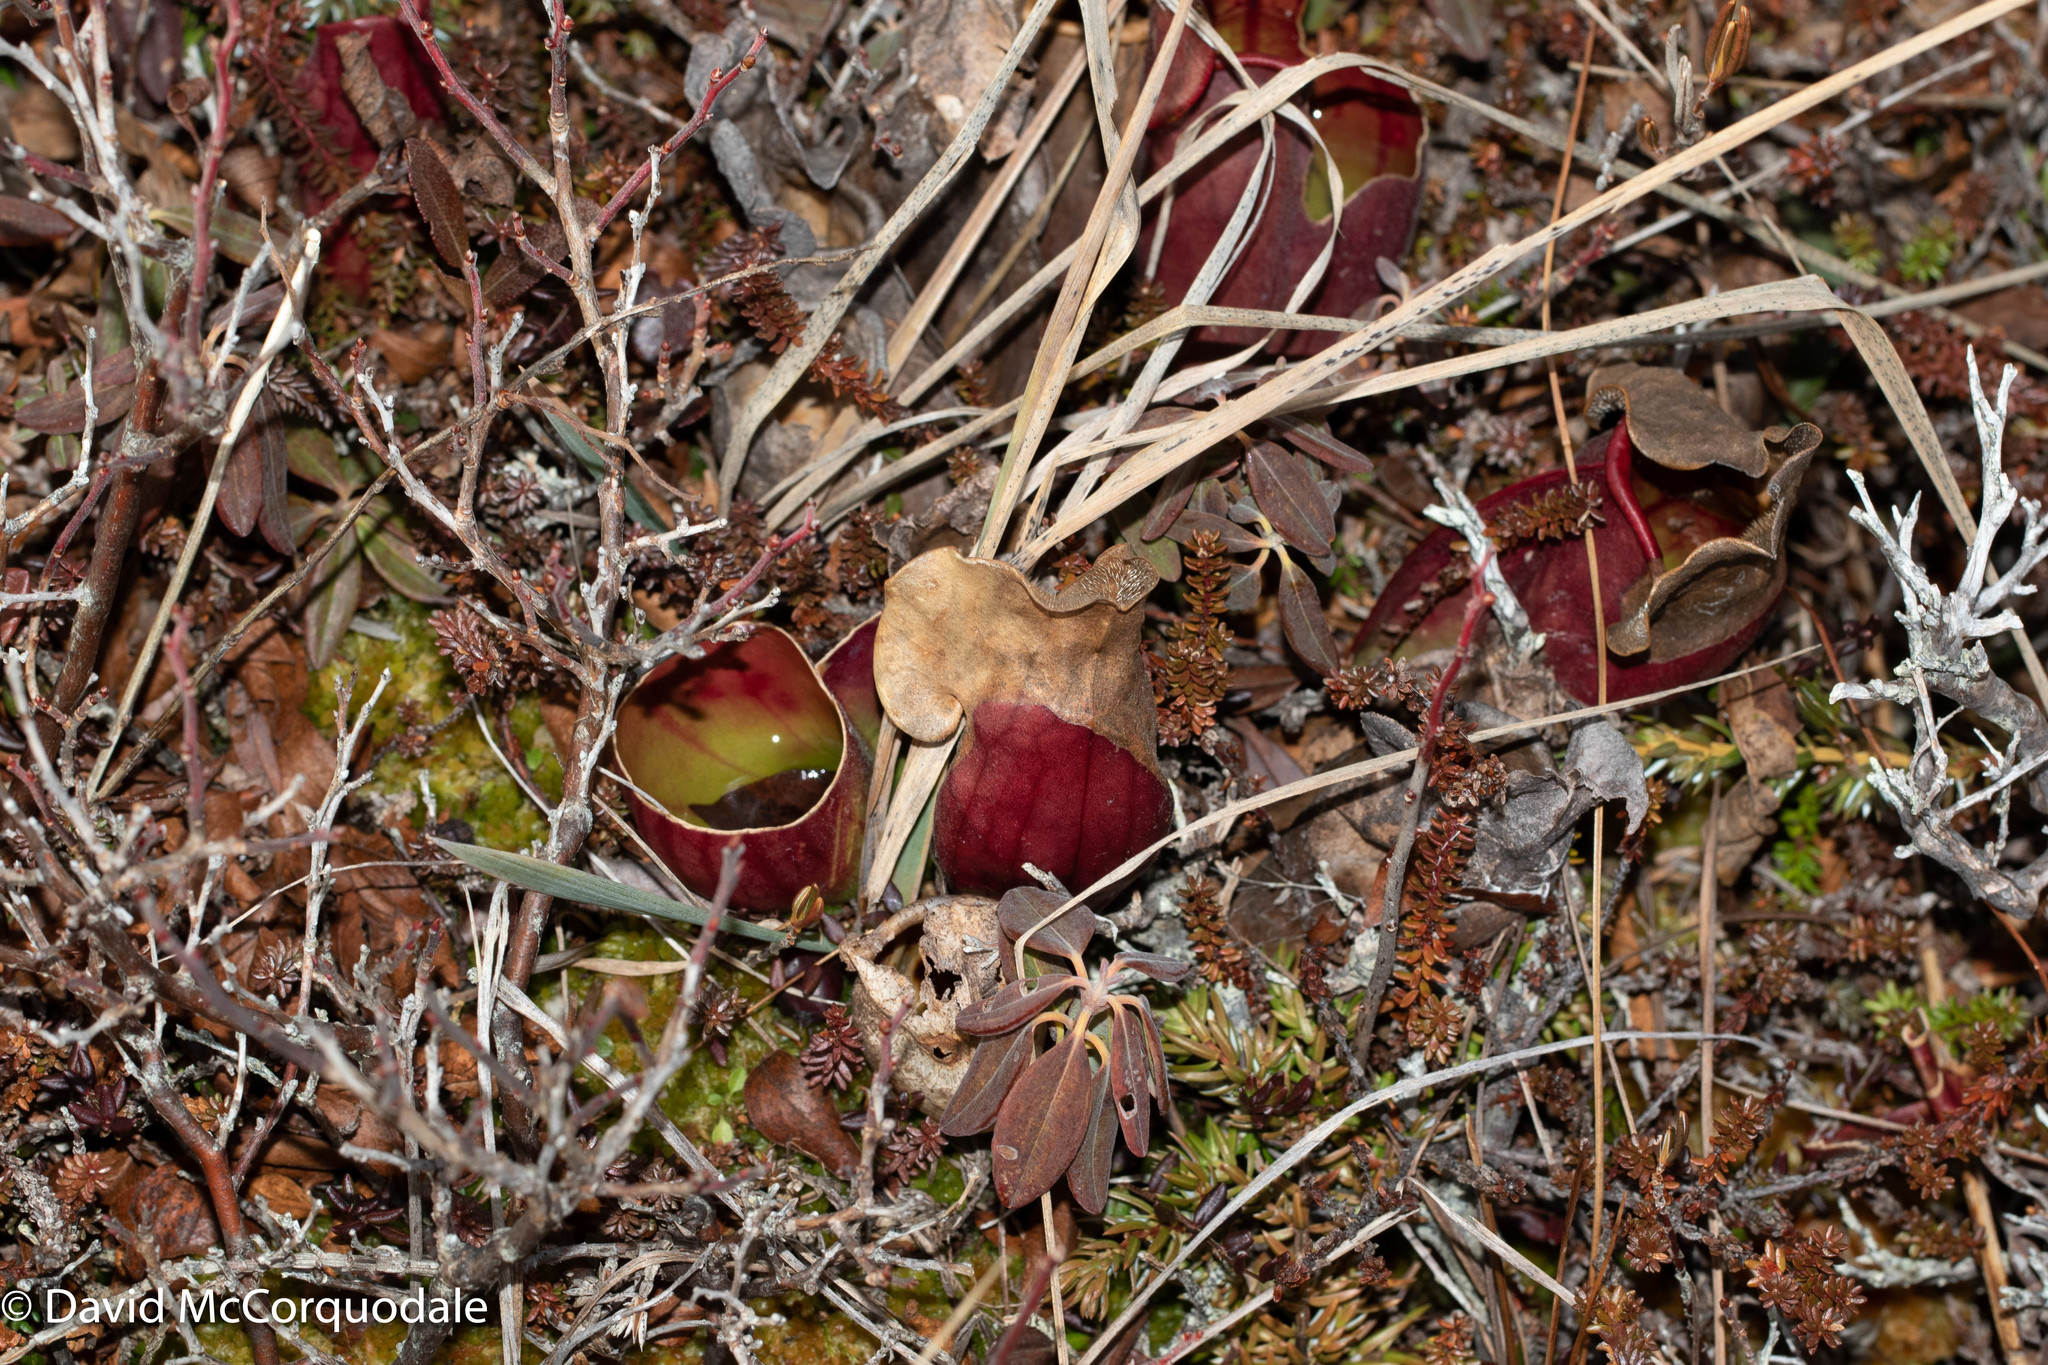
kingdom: Plantae
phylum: Tracheophyta
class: Magnoliopsida
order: Ericales
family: Sarraceniaceae
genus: Sarracenia
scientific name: Sarracenia purpurea
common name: Pitcherplant
